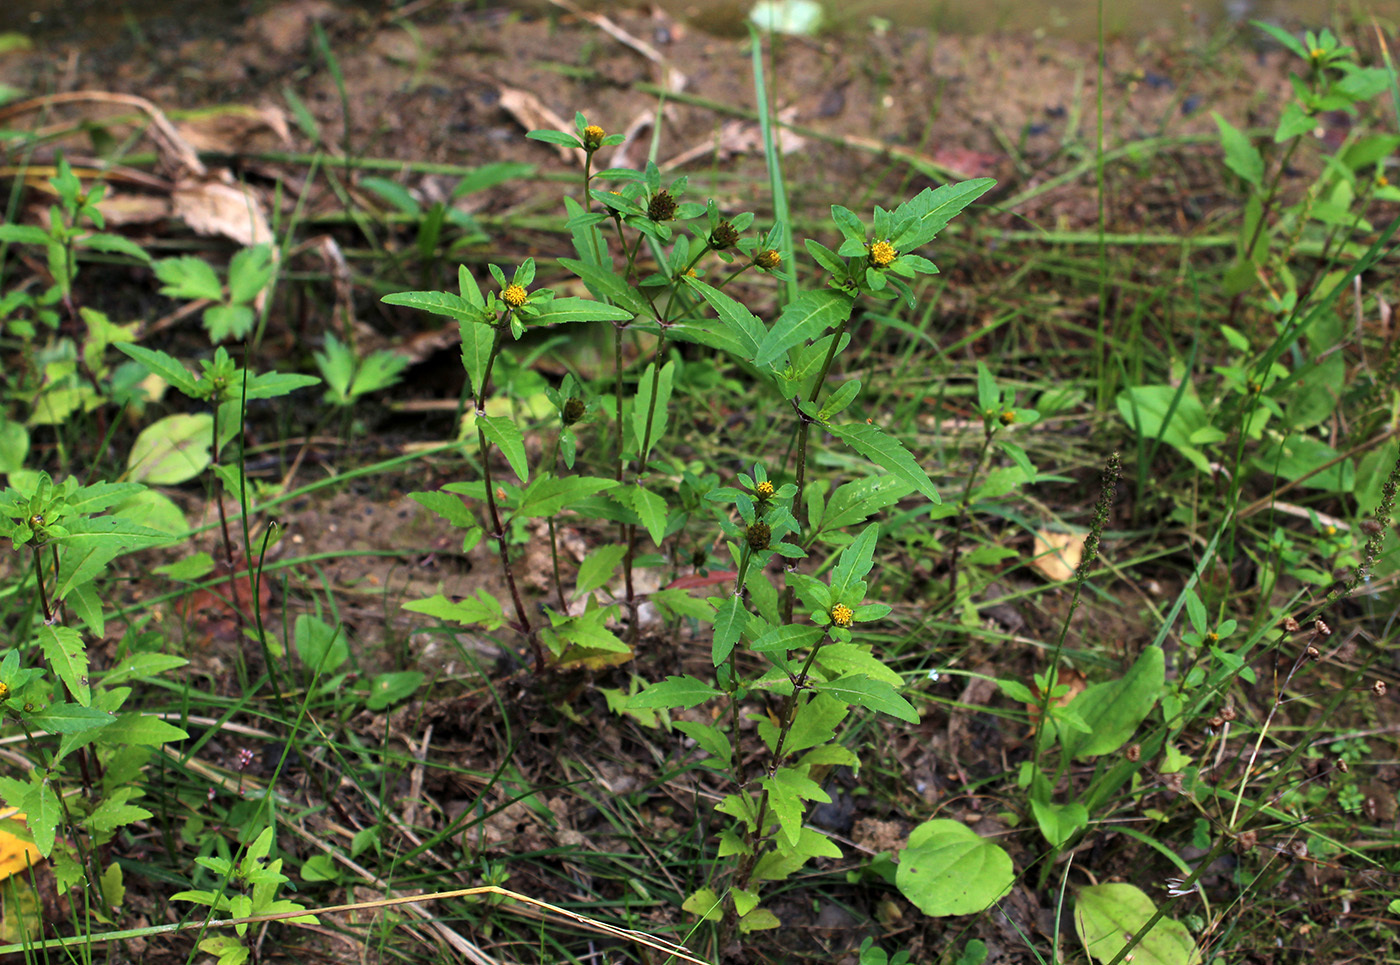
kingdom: Plantae
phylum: Tracheophyta
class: Magnoliopsida
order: Asterales
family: Asteraceae
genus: Bidens
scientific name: Bidens tripartita
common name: Trifid bur-marigold
